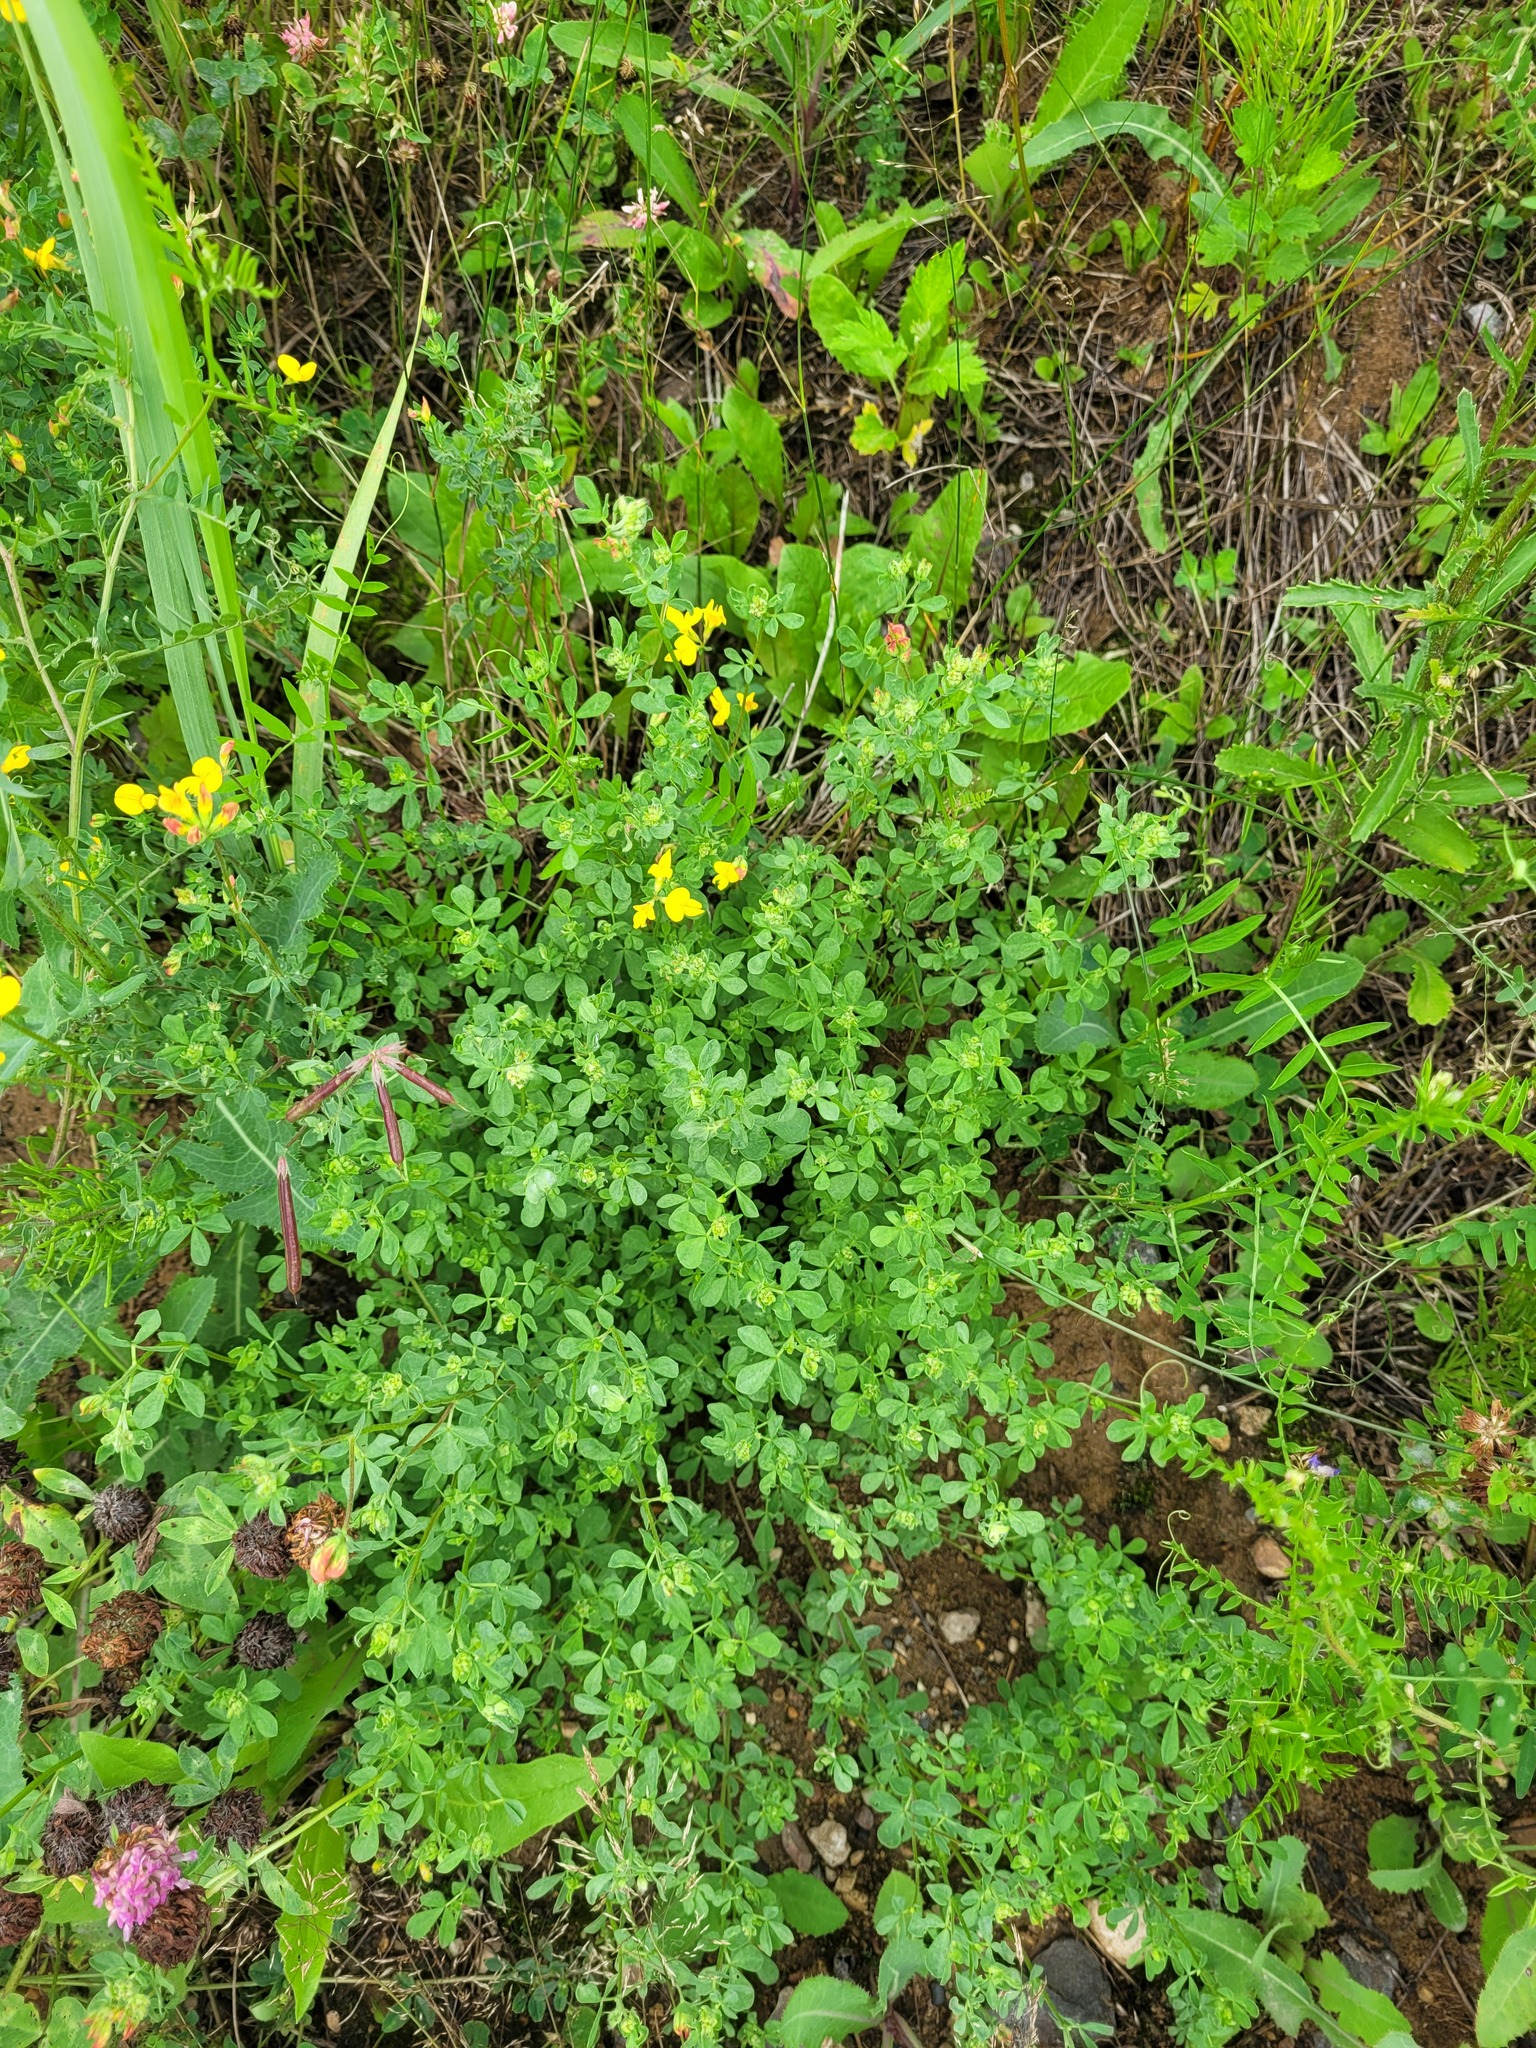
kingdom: Plantae
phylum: Tracheophyta
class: Magnoliopsida
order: Fabales
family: Fabaceae
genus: Lotus
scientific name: Lotus corniculatus
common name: Common bird's-foot-trefoil
